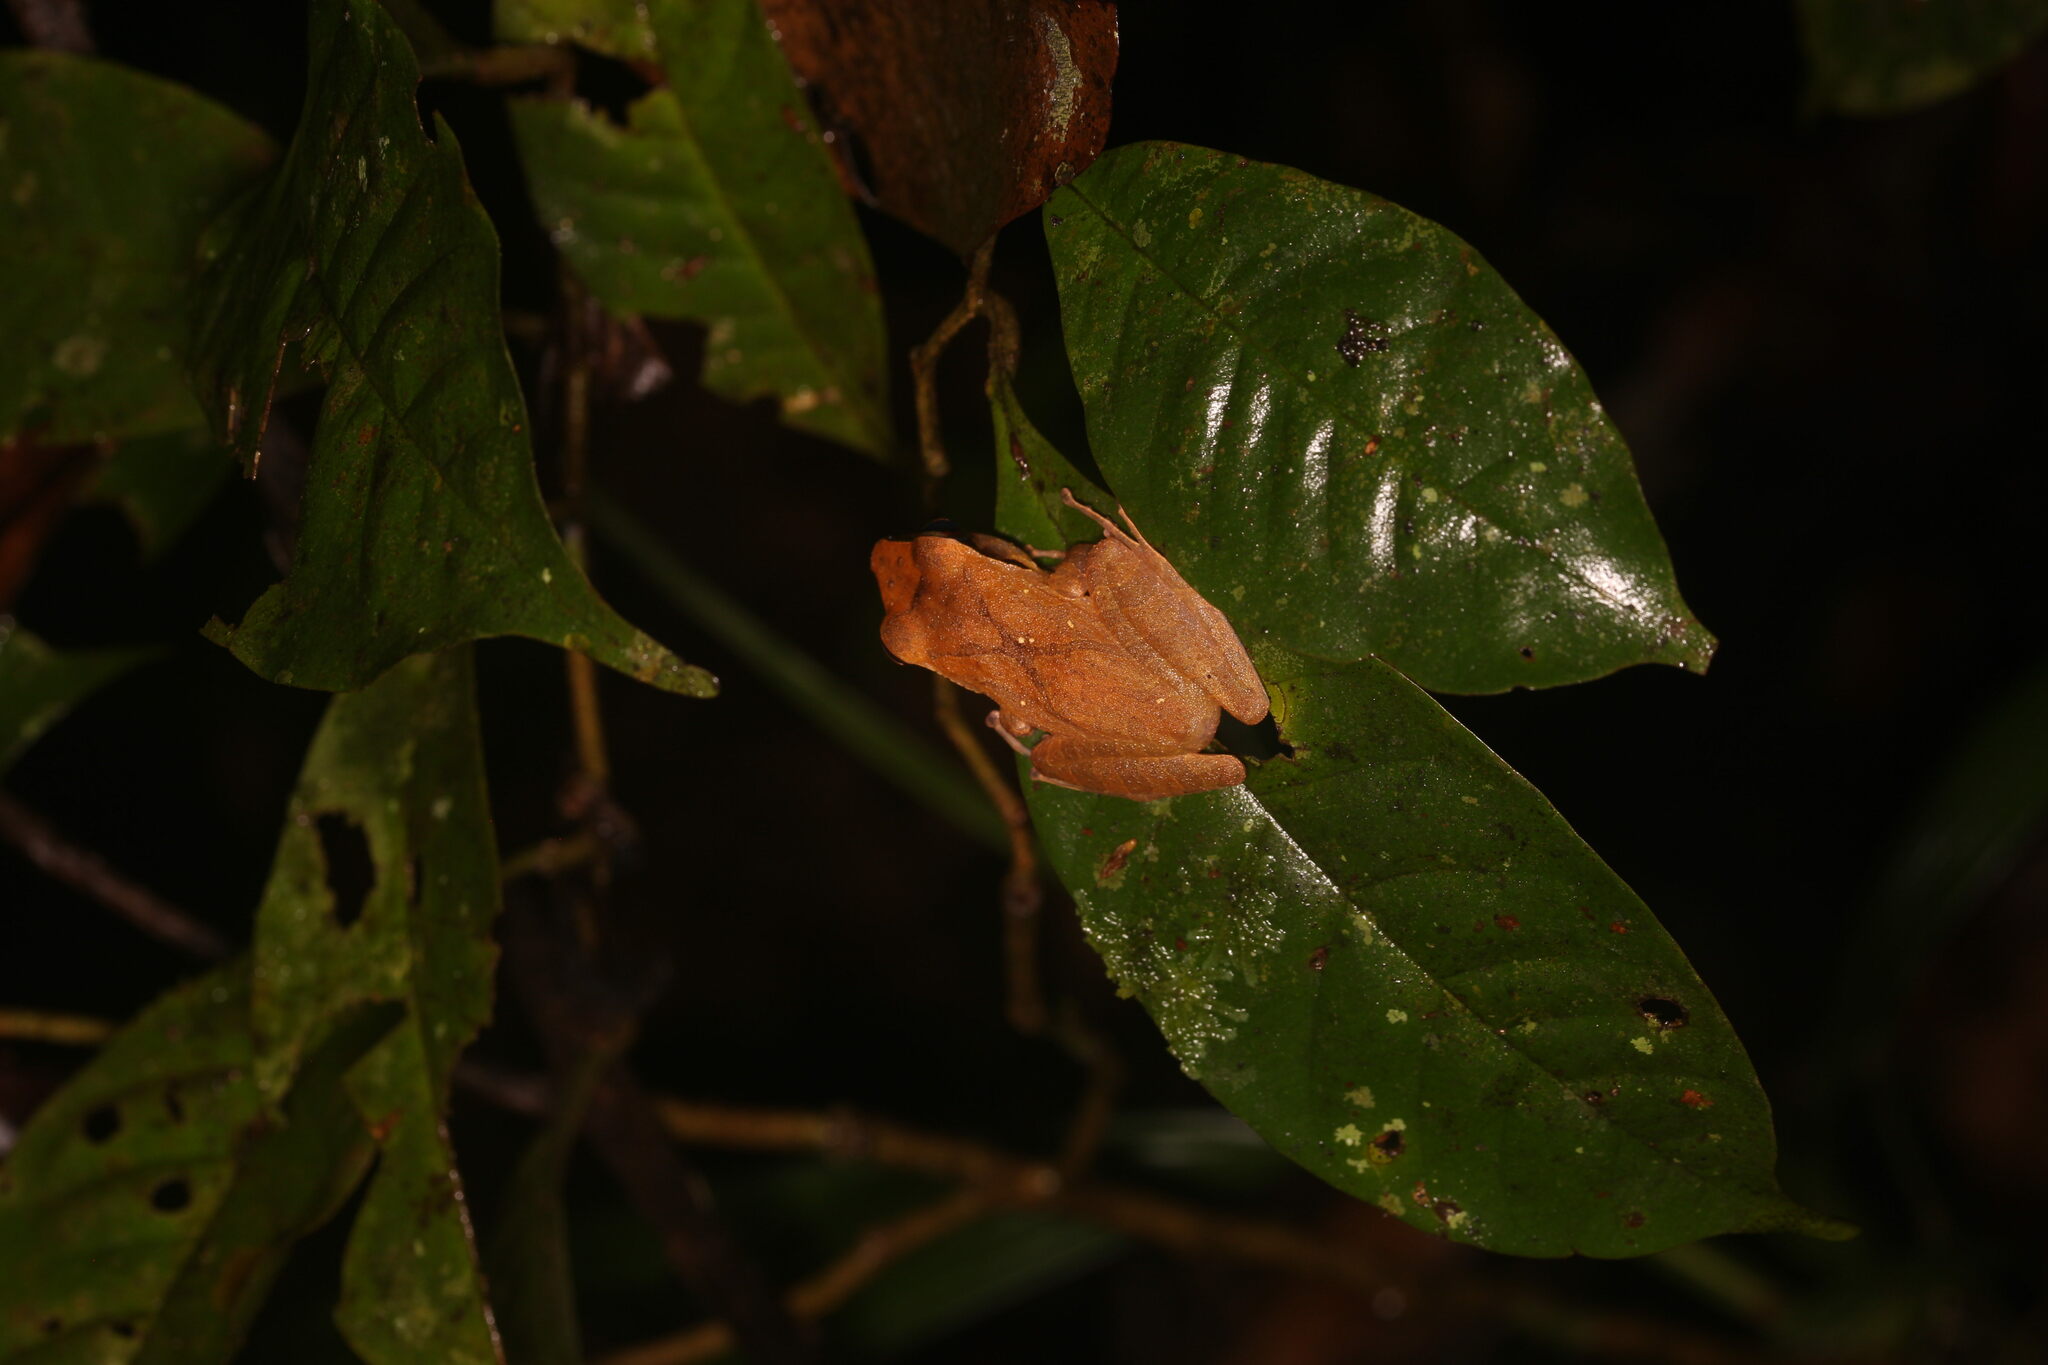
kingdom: Animalia
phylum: Chordata
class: Amphibia
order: Anura
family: Craugastoridae
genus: Pristimantis
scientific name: Pristimantis chiastonotus
